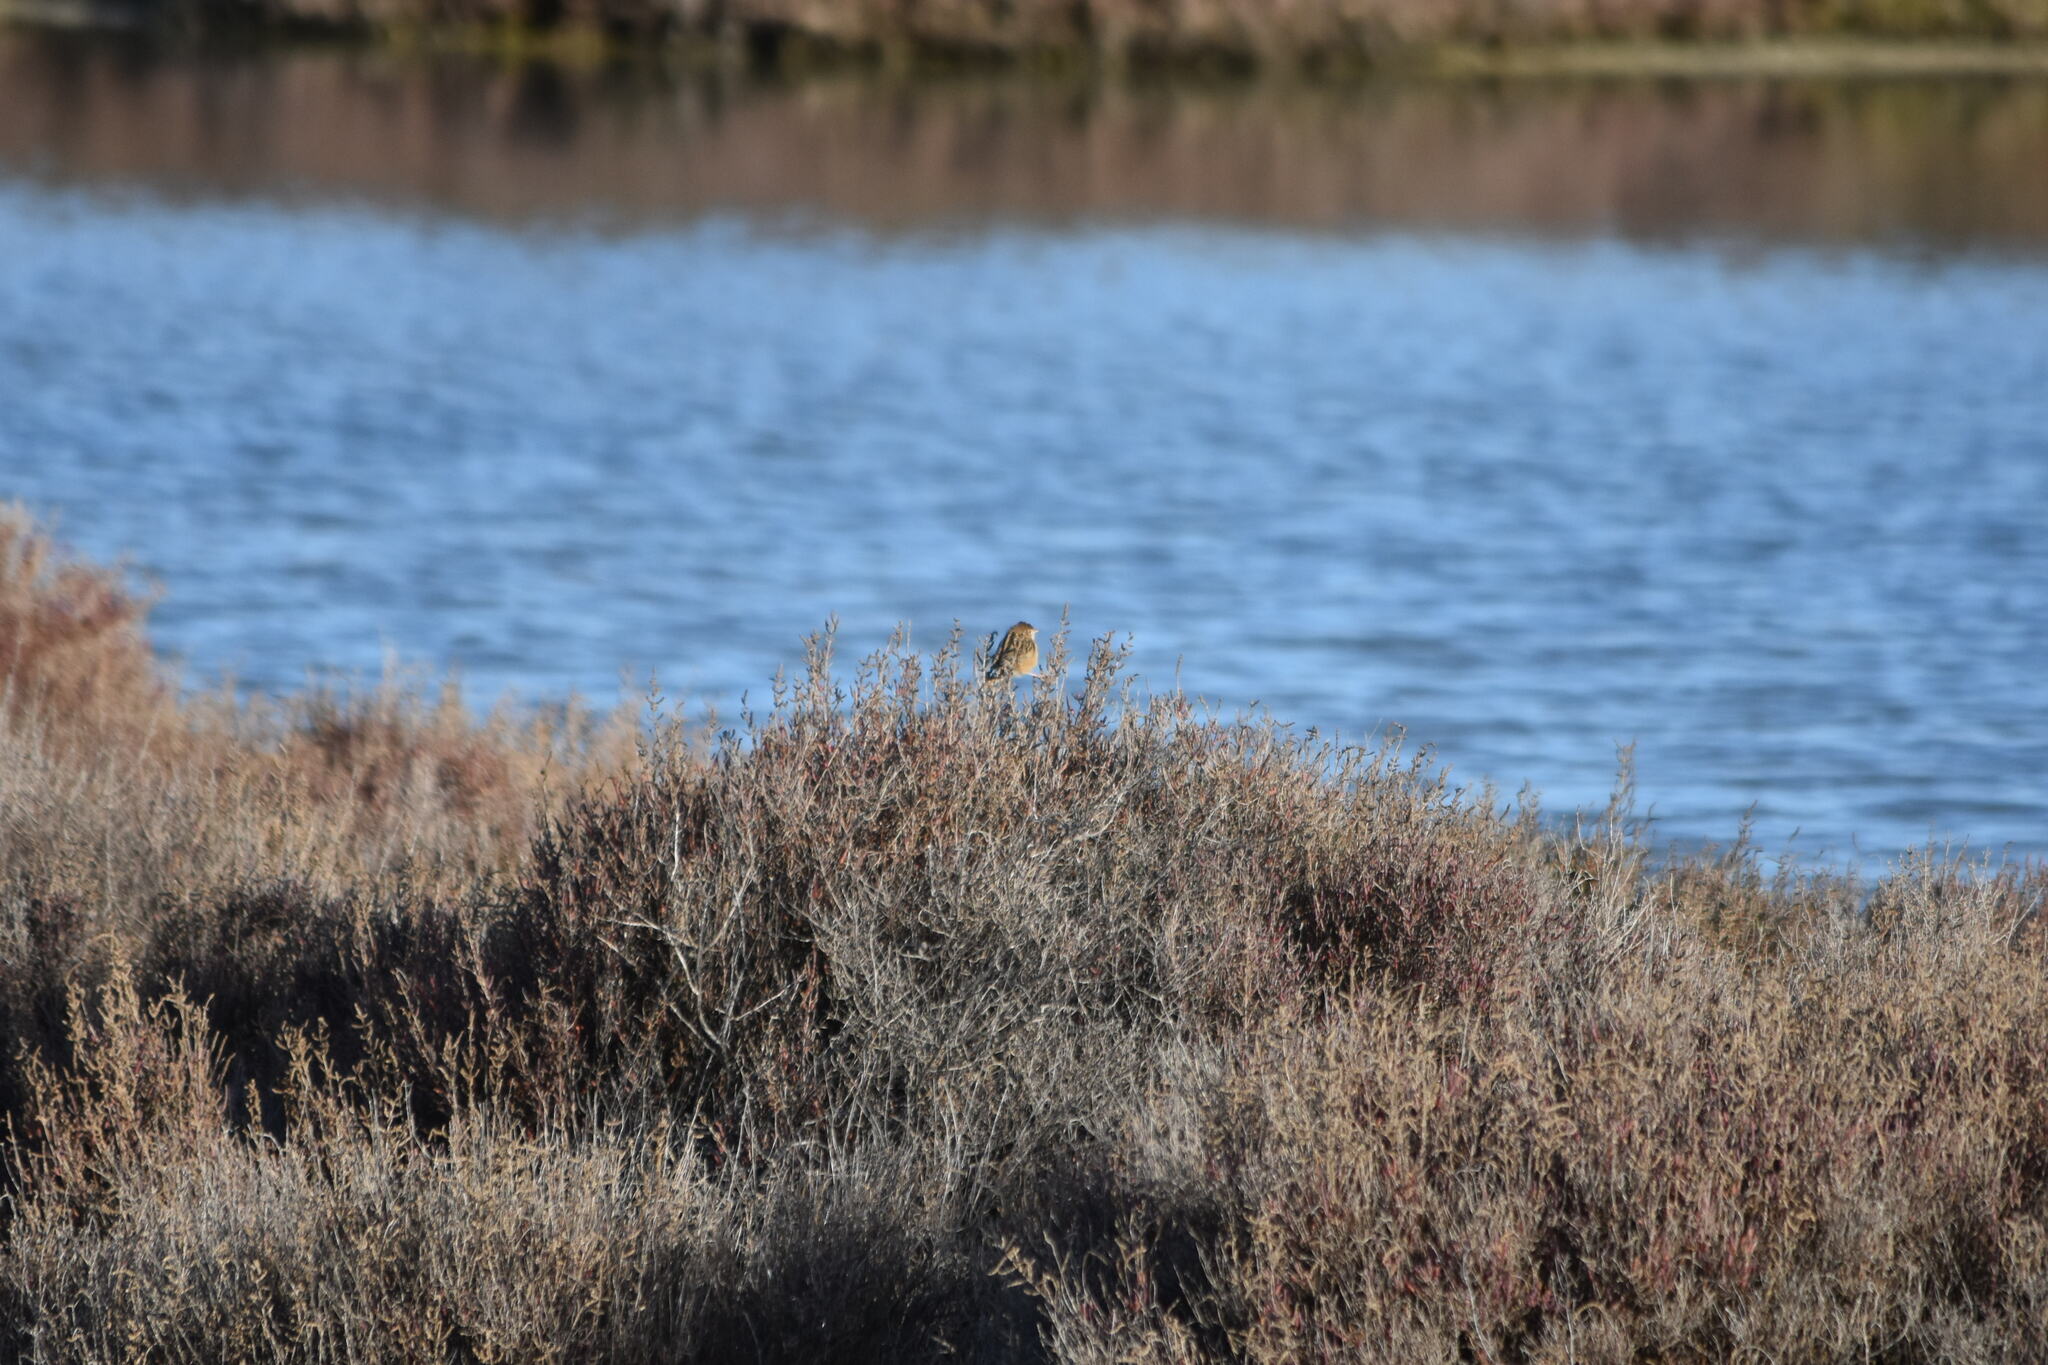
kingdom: Animalia
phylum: Chordata
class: Aves
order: Passeriformes
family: Cisticolidae
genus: Cisticola
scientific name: Cisticola juncidis
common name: Zitting cisticola
